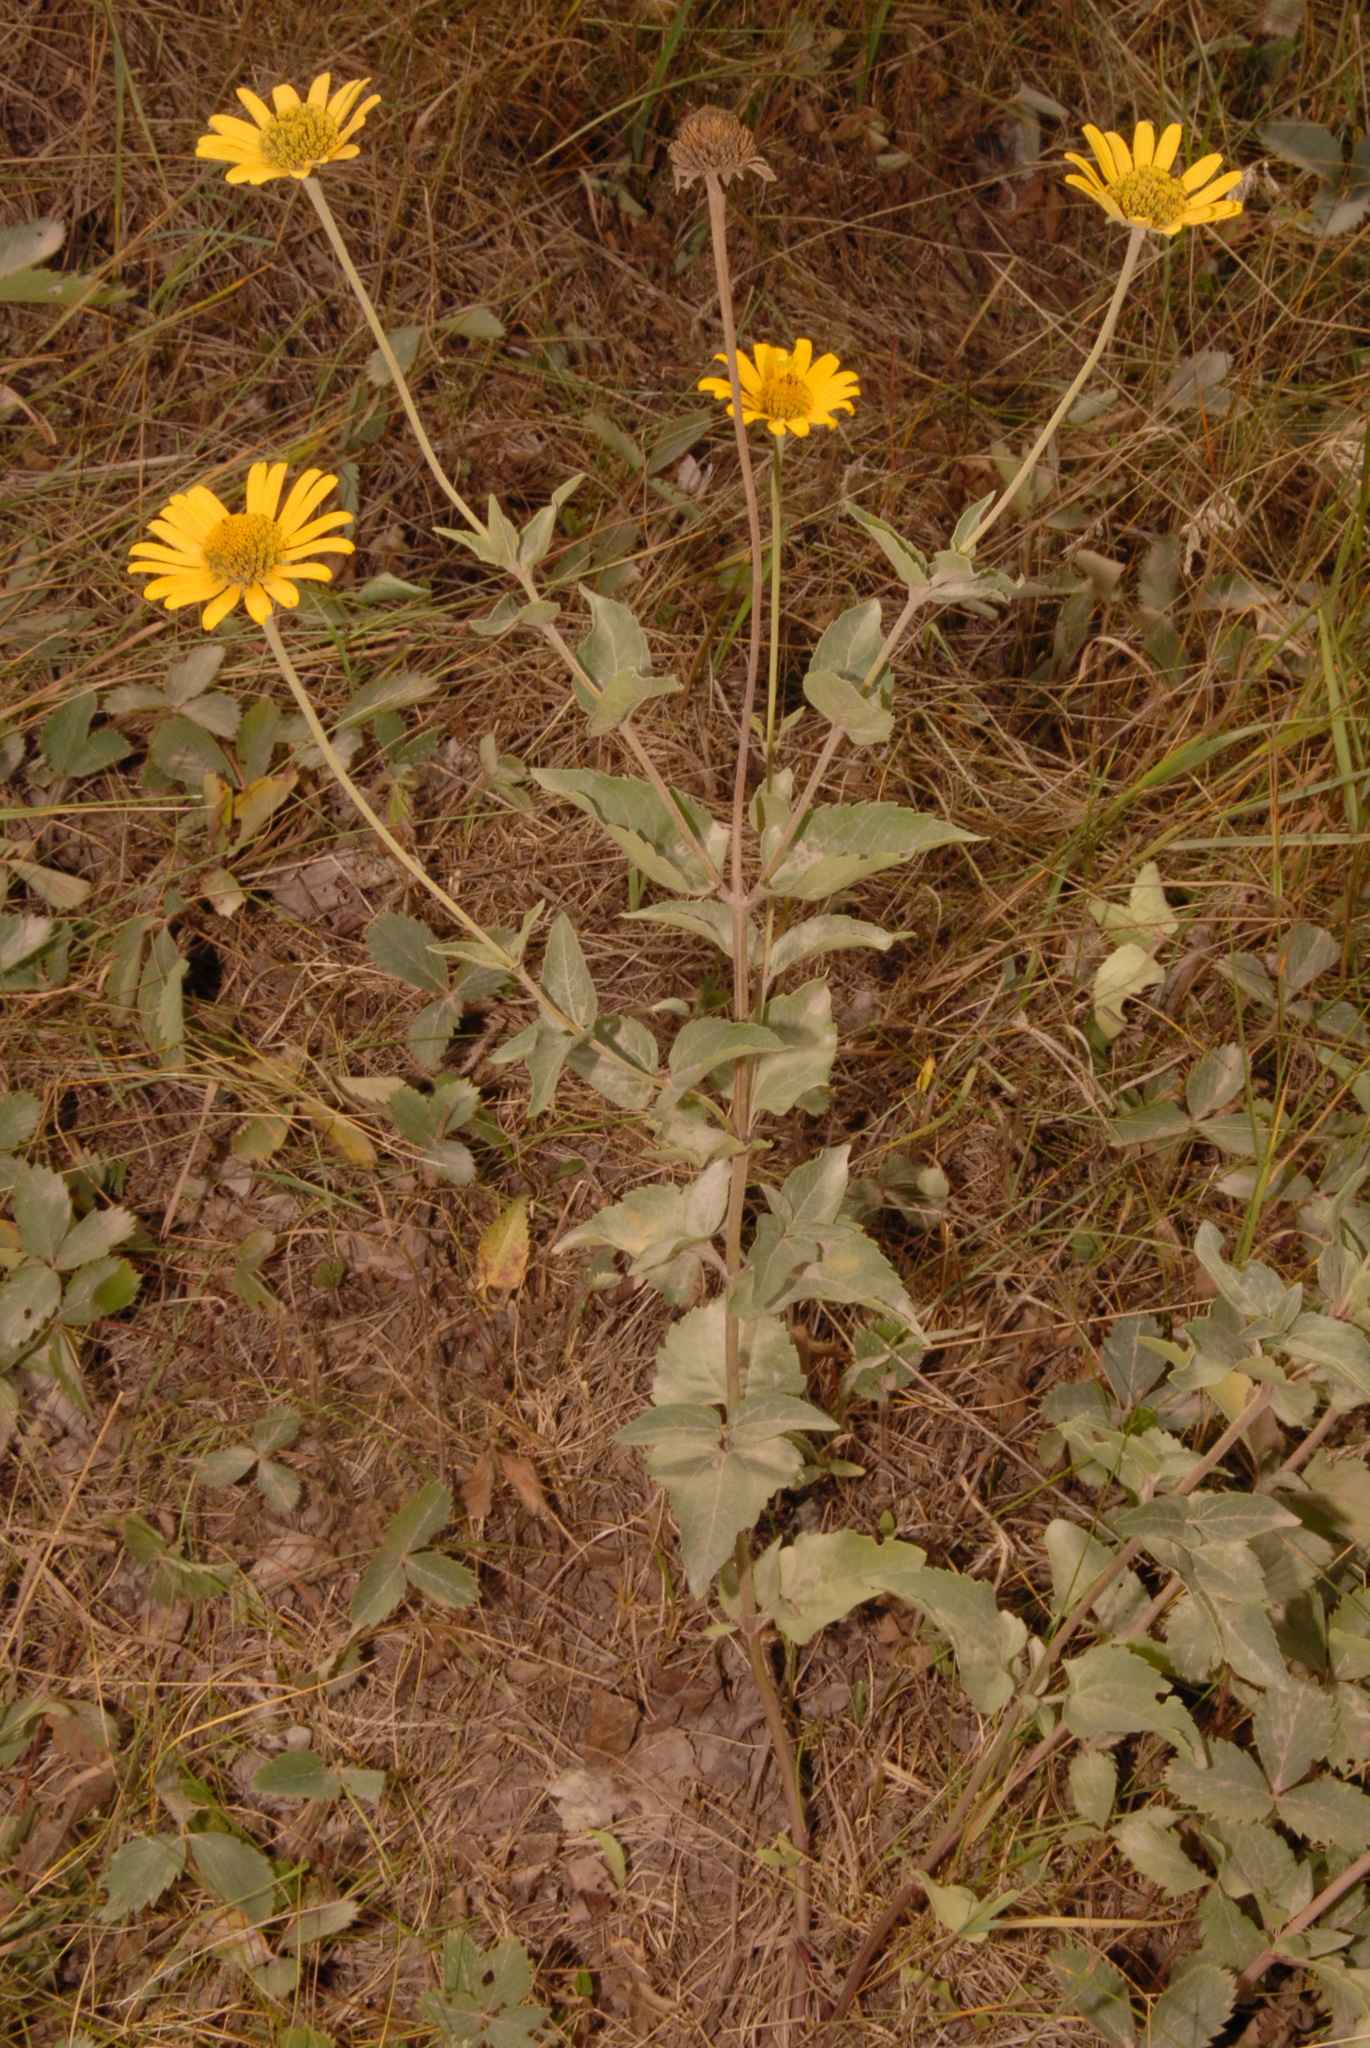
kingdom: Plantae
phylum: Tracheophyta
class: Magnoliopsida
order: Asterales
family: Asteraceae
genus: Heliopsis
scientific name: Heliopsis helianthoides
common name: False sunflower
